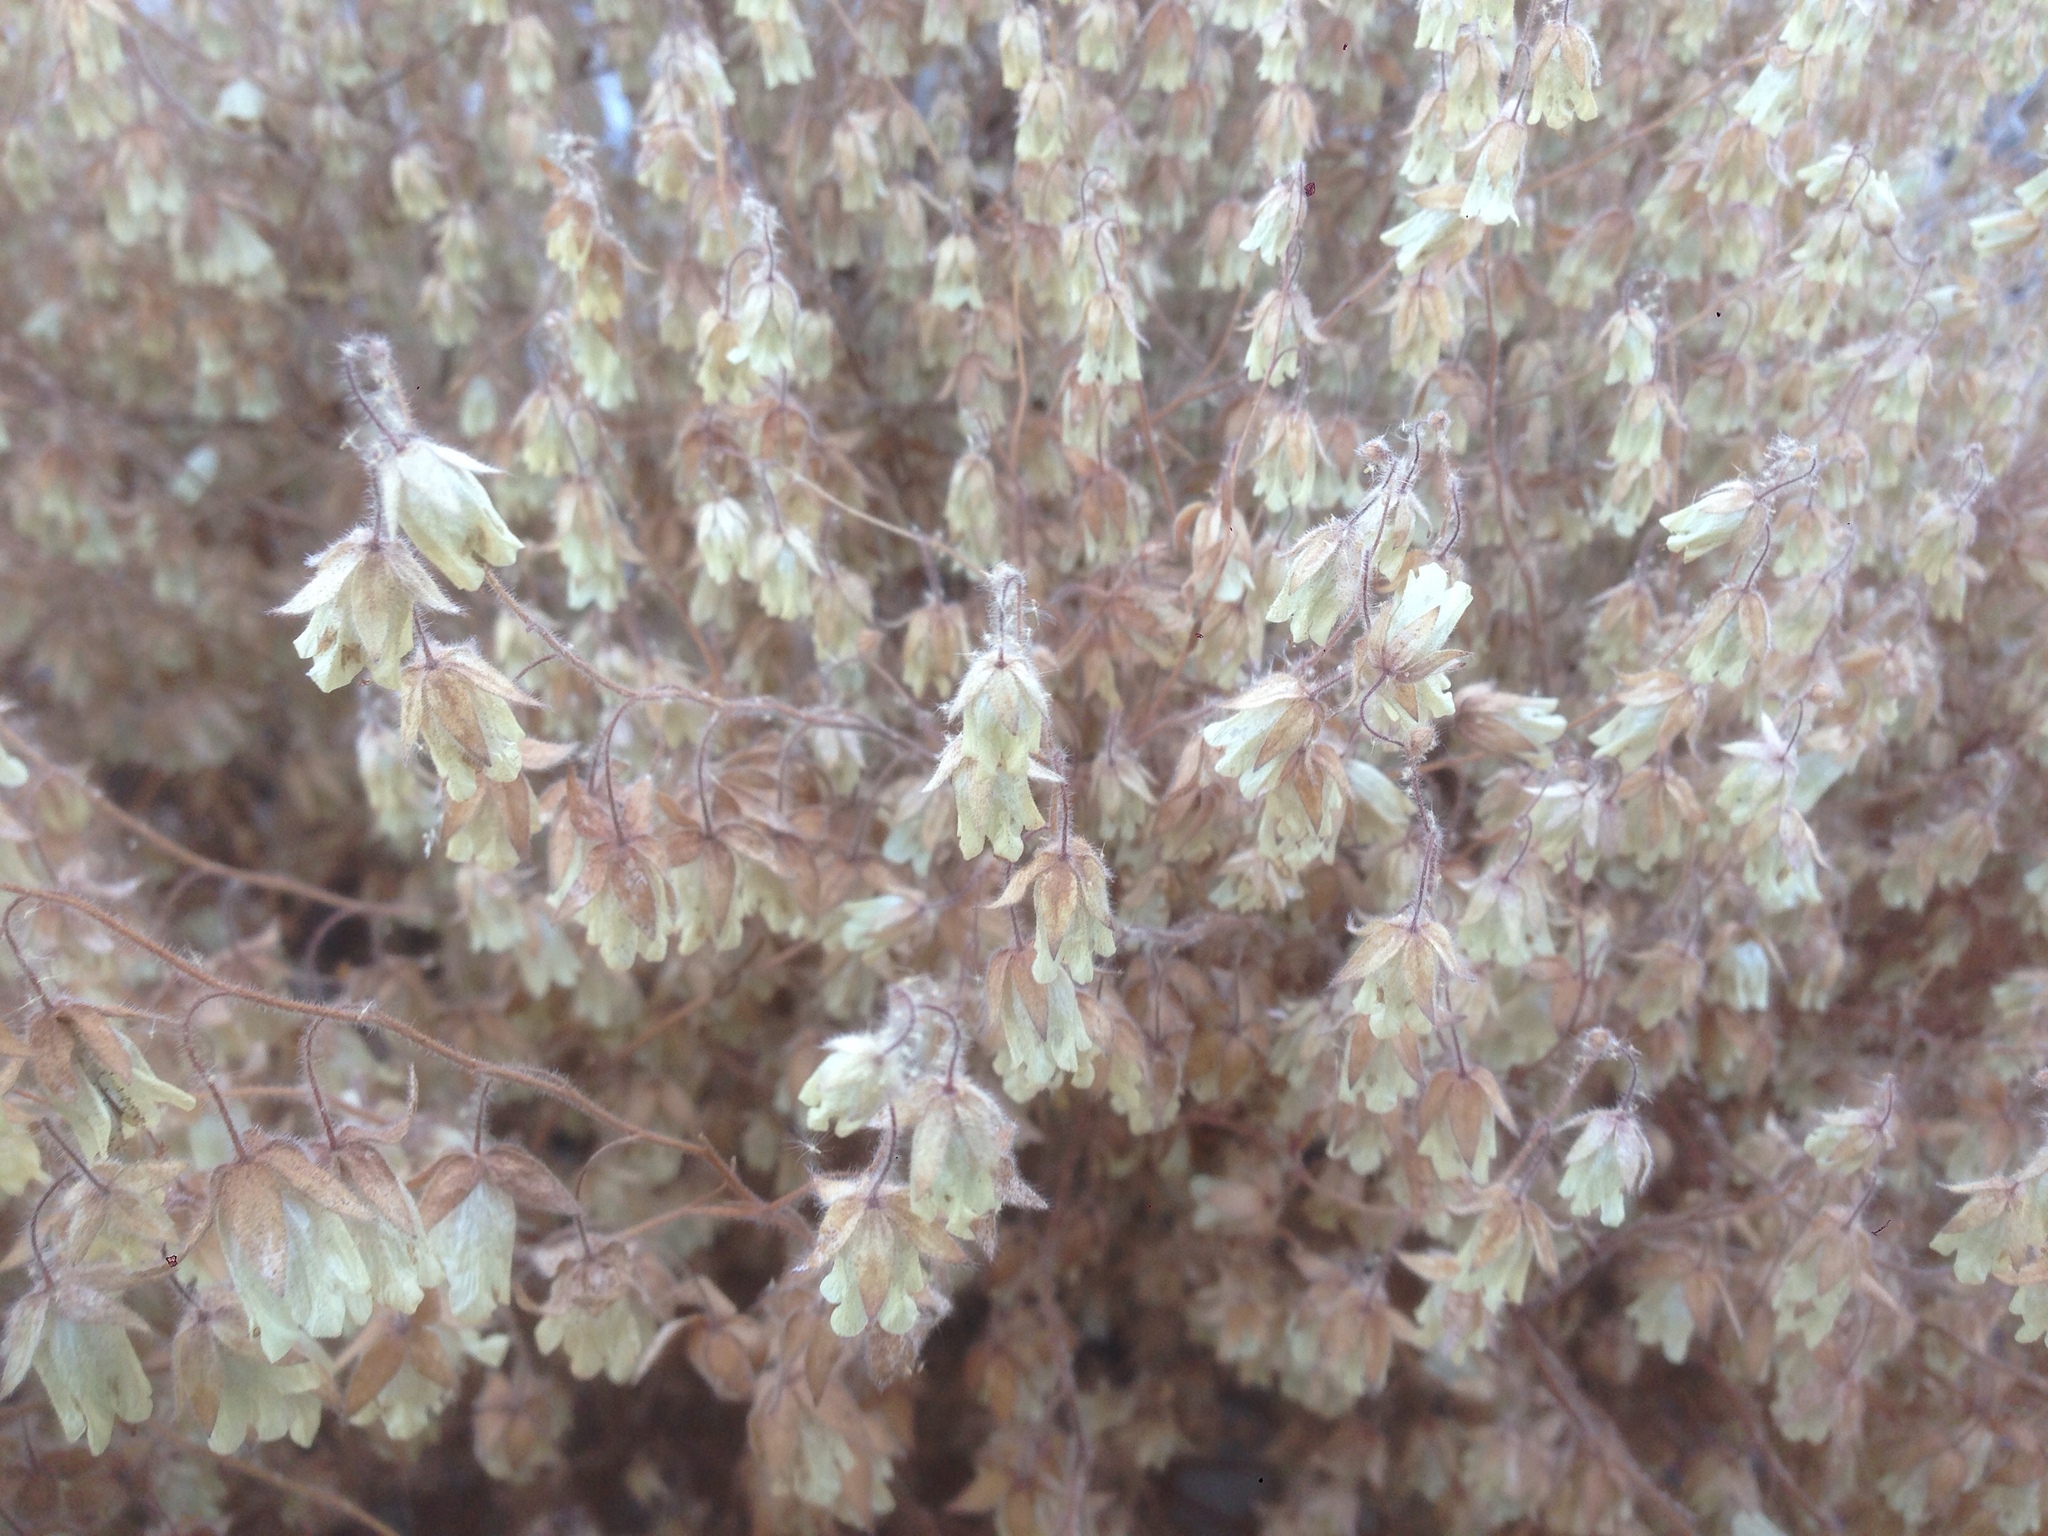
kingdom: Plantae
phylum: Tracheophyta
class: Magnoliopsida
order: Boraginales
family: Hydrophyllaceae
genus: Emmenanthe
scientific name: Emmenanthe penduliflora
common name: Whispering-bells
